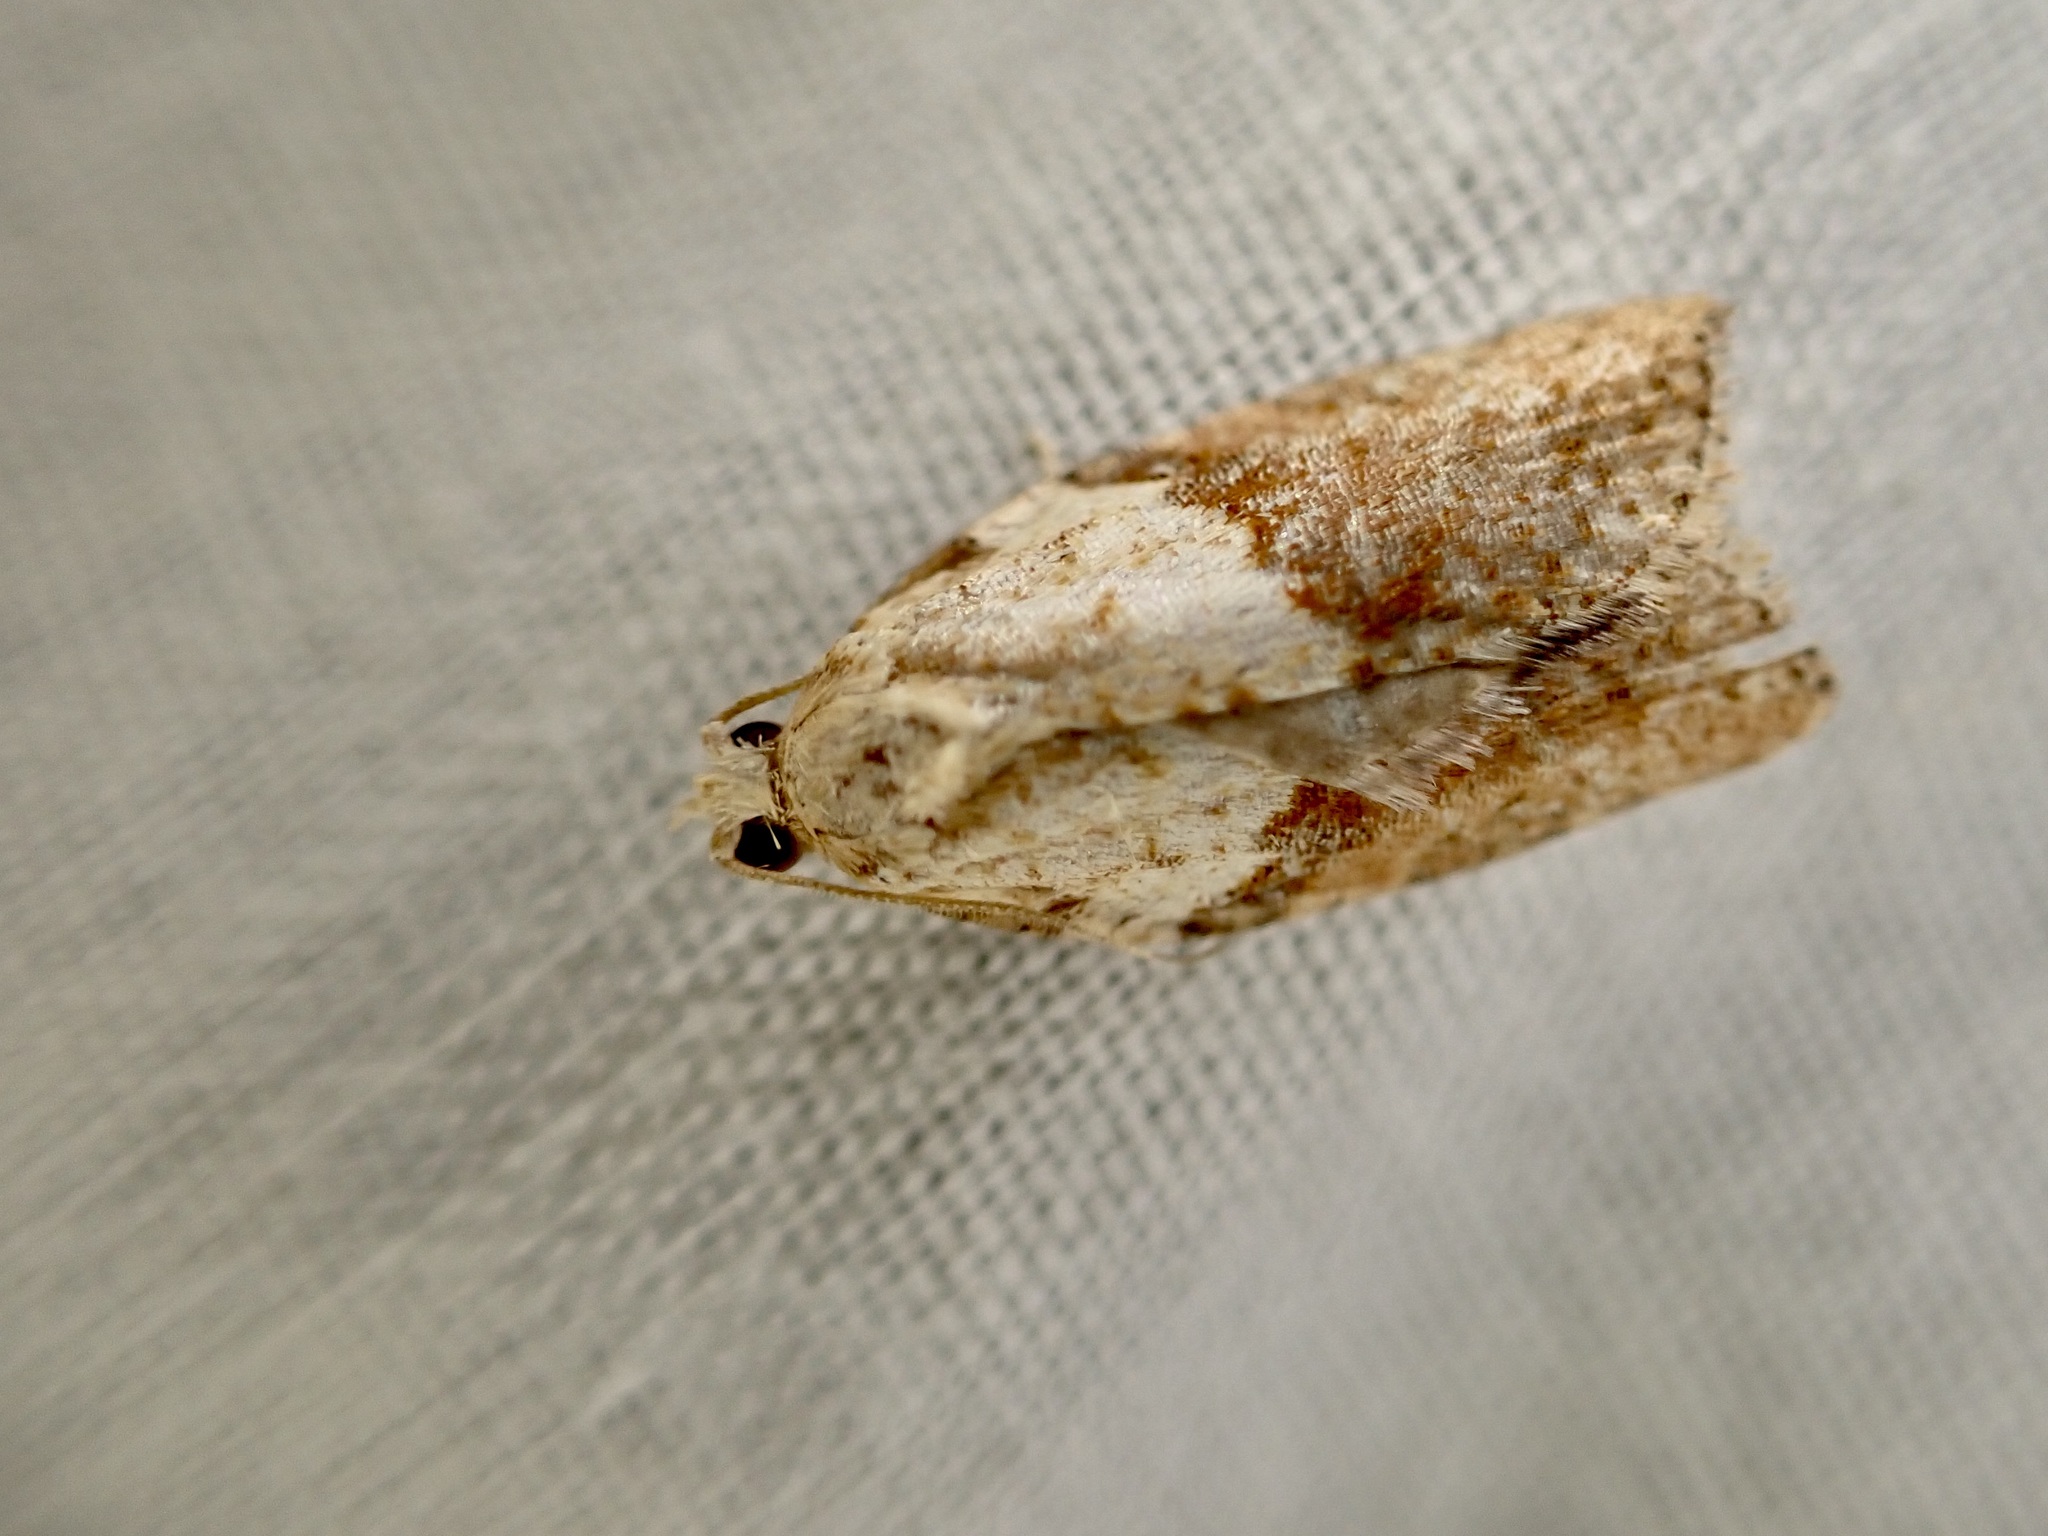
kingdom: Animalia
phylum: Arthropoda
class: Insecta
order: Lepidoptera
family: Tortricidae
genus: Epiphyas
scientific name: Epiphyas postvittana
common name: Light brown apple moth
